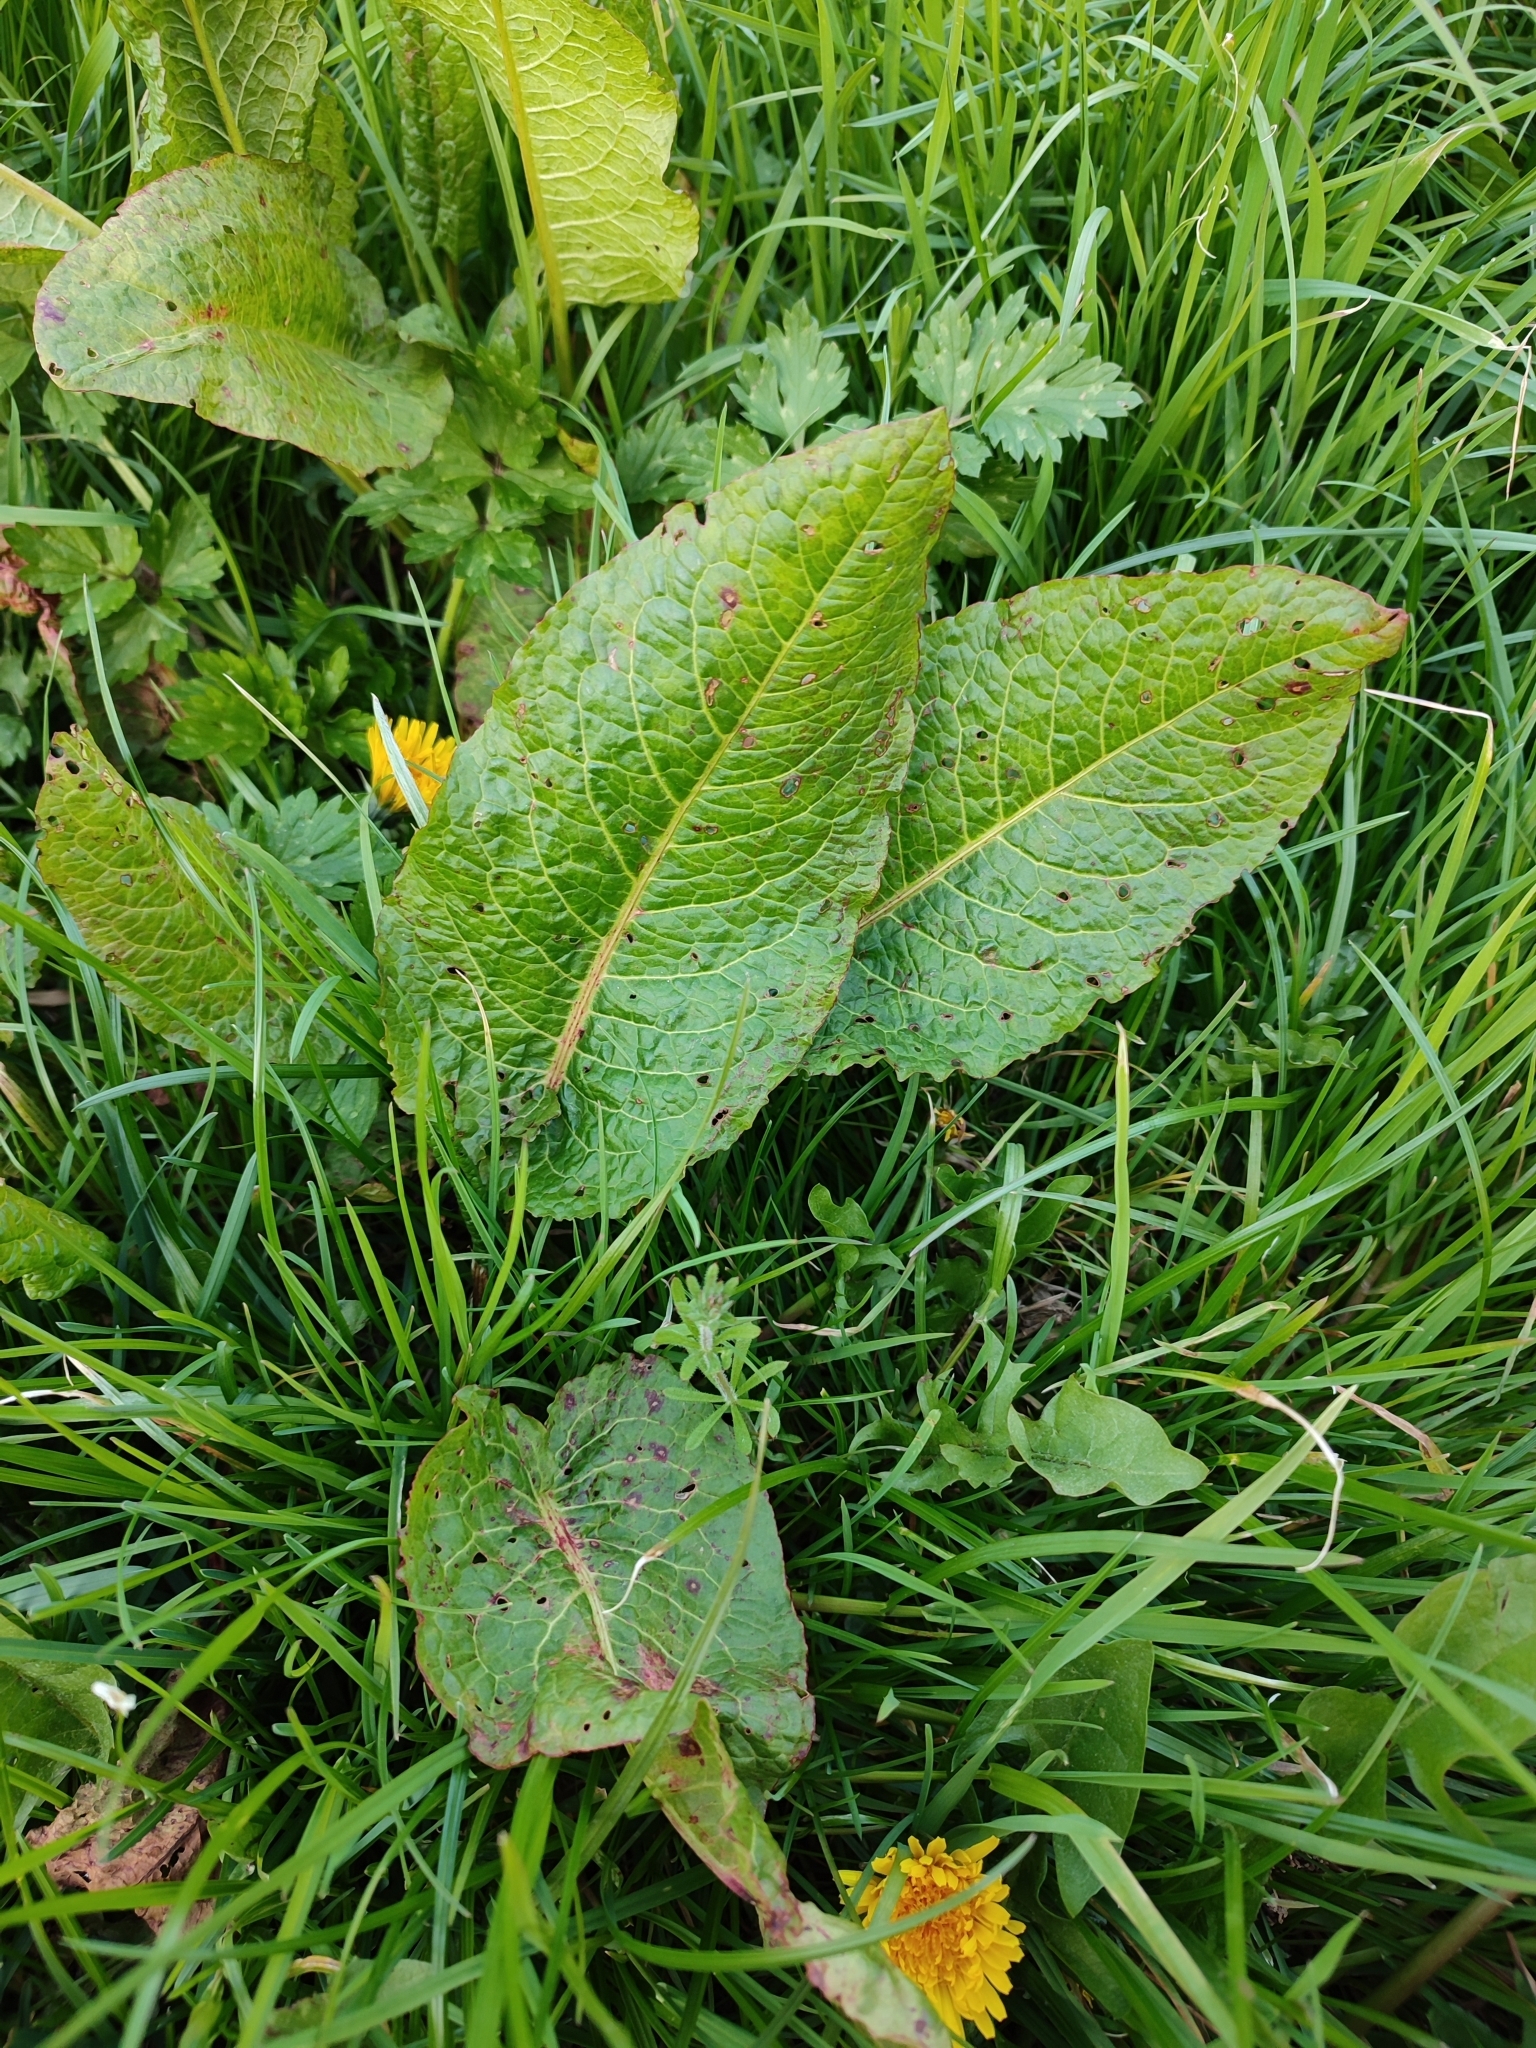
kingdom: Plantae
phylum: Tracheophyta
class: Magnoliopsida
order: Caryophyllales
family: Polygonaceae
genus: Rumex
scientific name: Rumex obtusifolius
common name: Bitter dock
